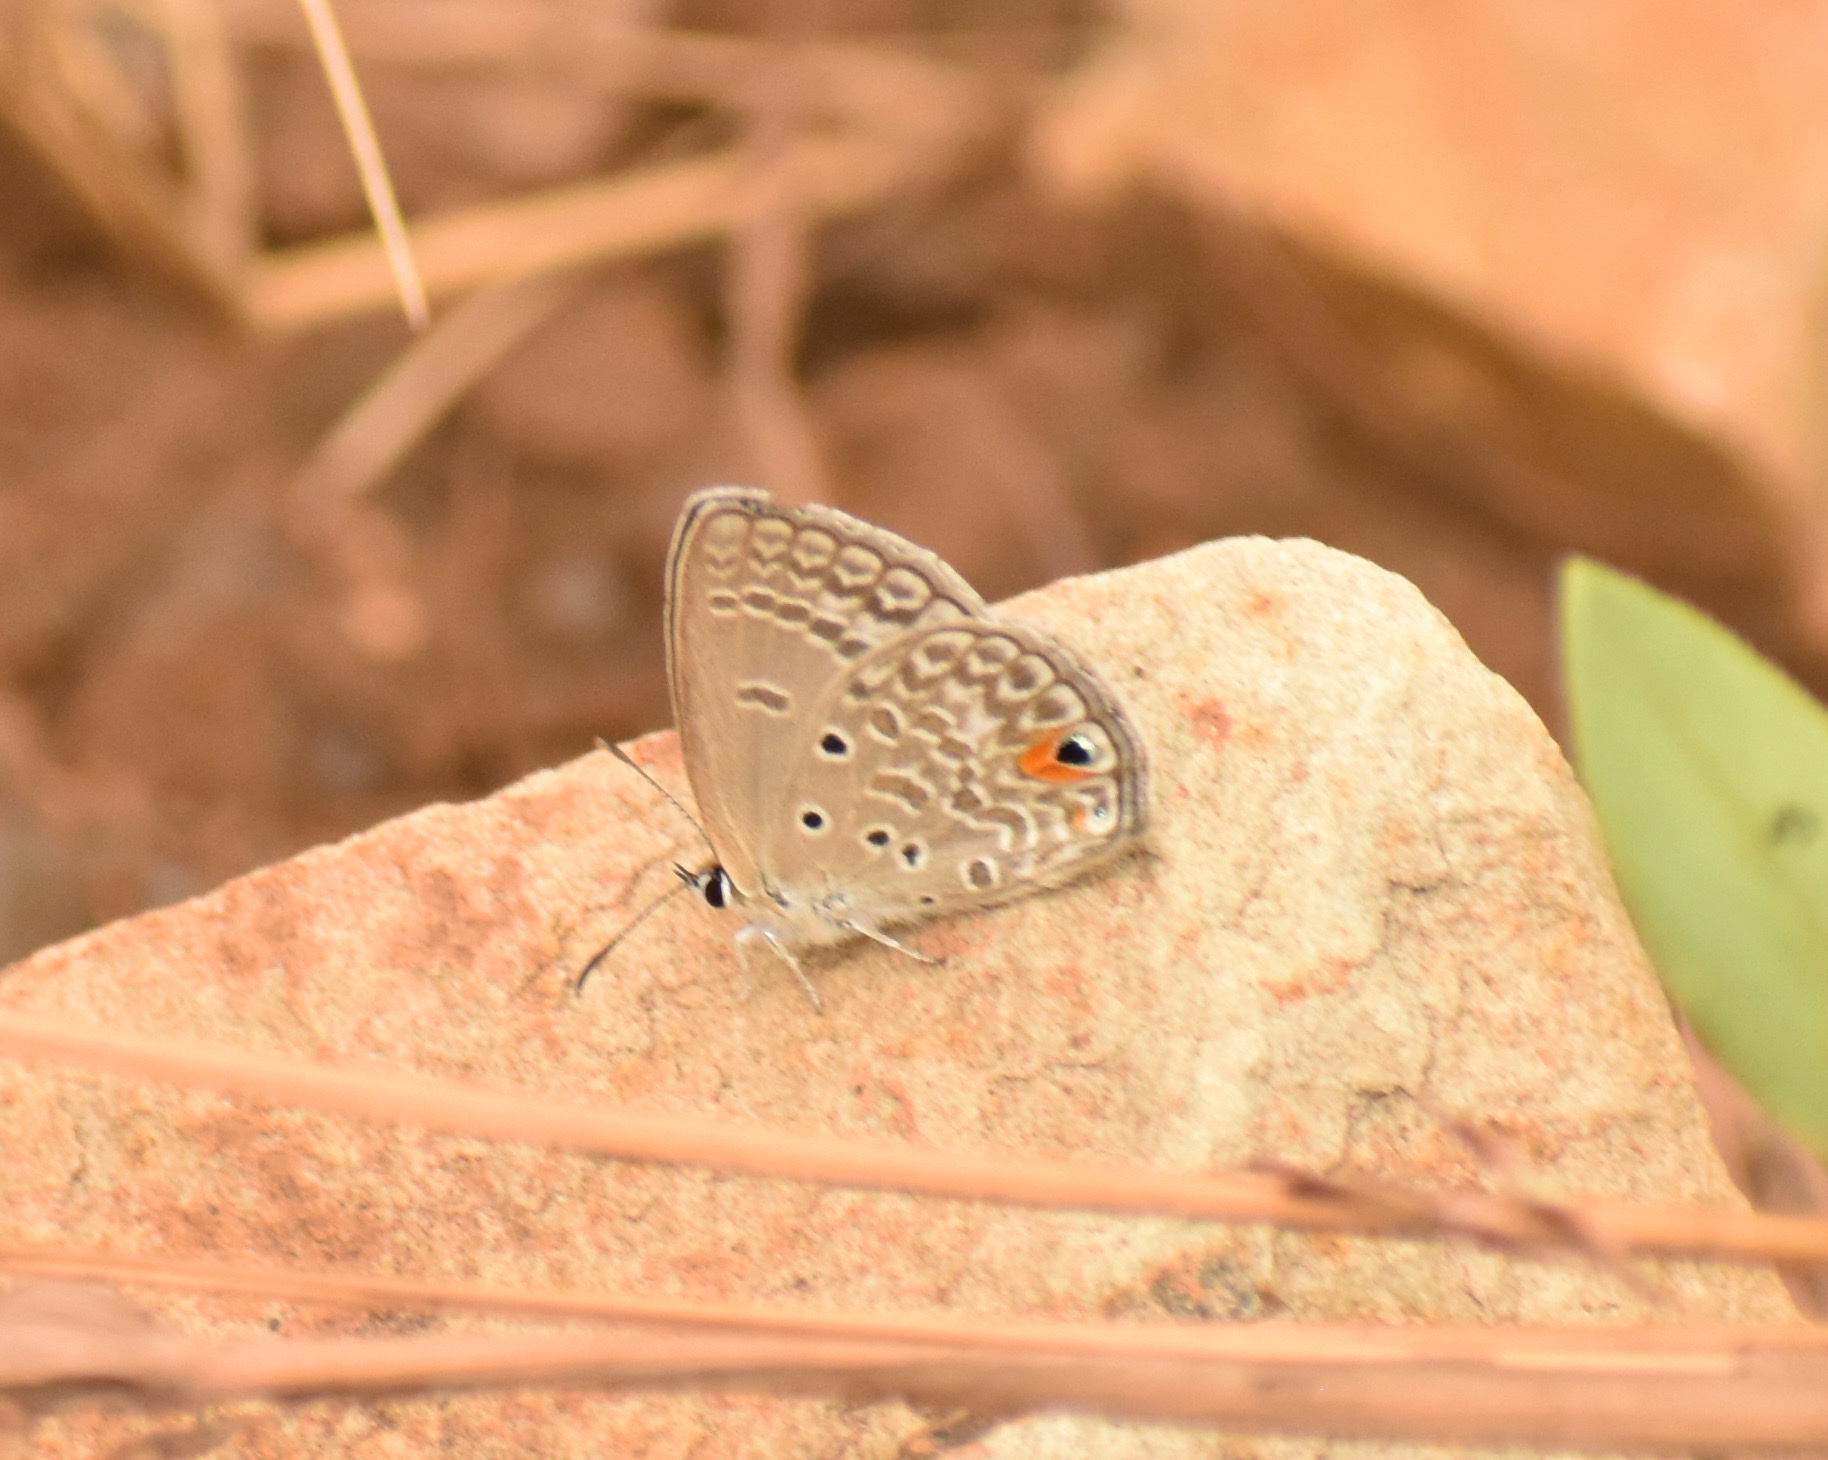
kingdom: Animalia
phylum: Arthropoda
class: Insecta
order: Lepidoptera
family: Lycaenidae
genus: Euchrysops
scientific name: Euchrysops malathana
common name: Common smoky blue
